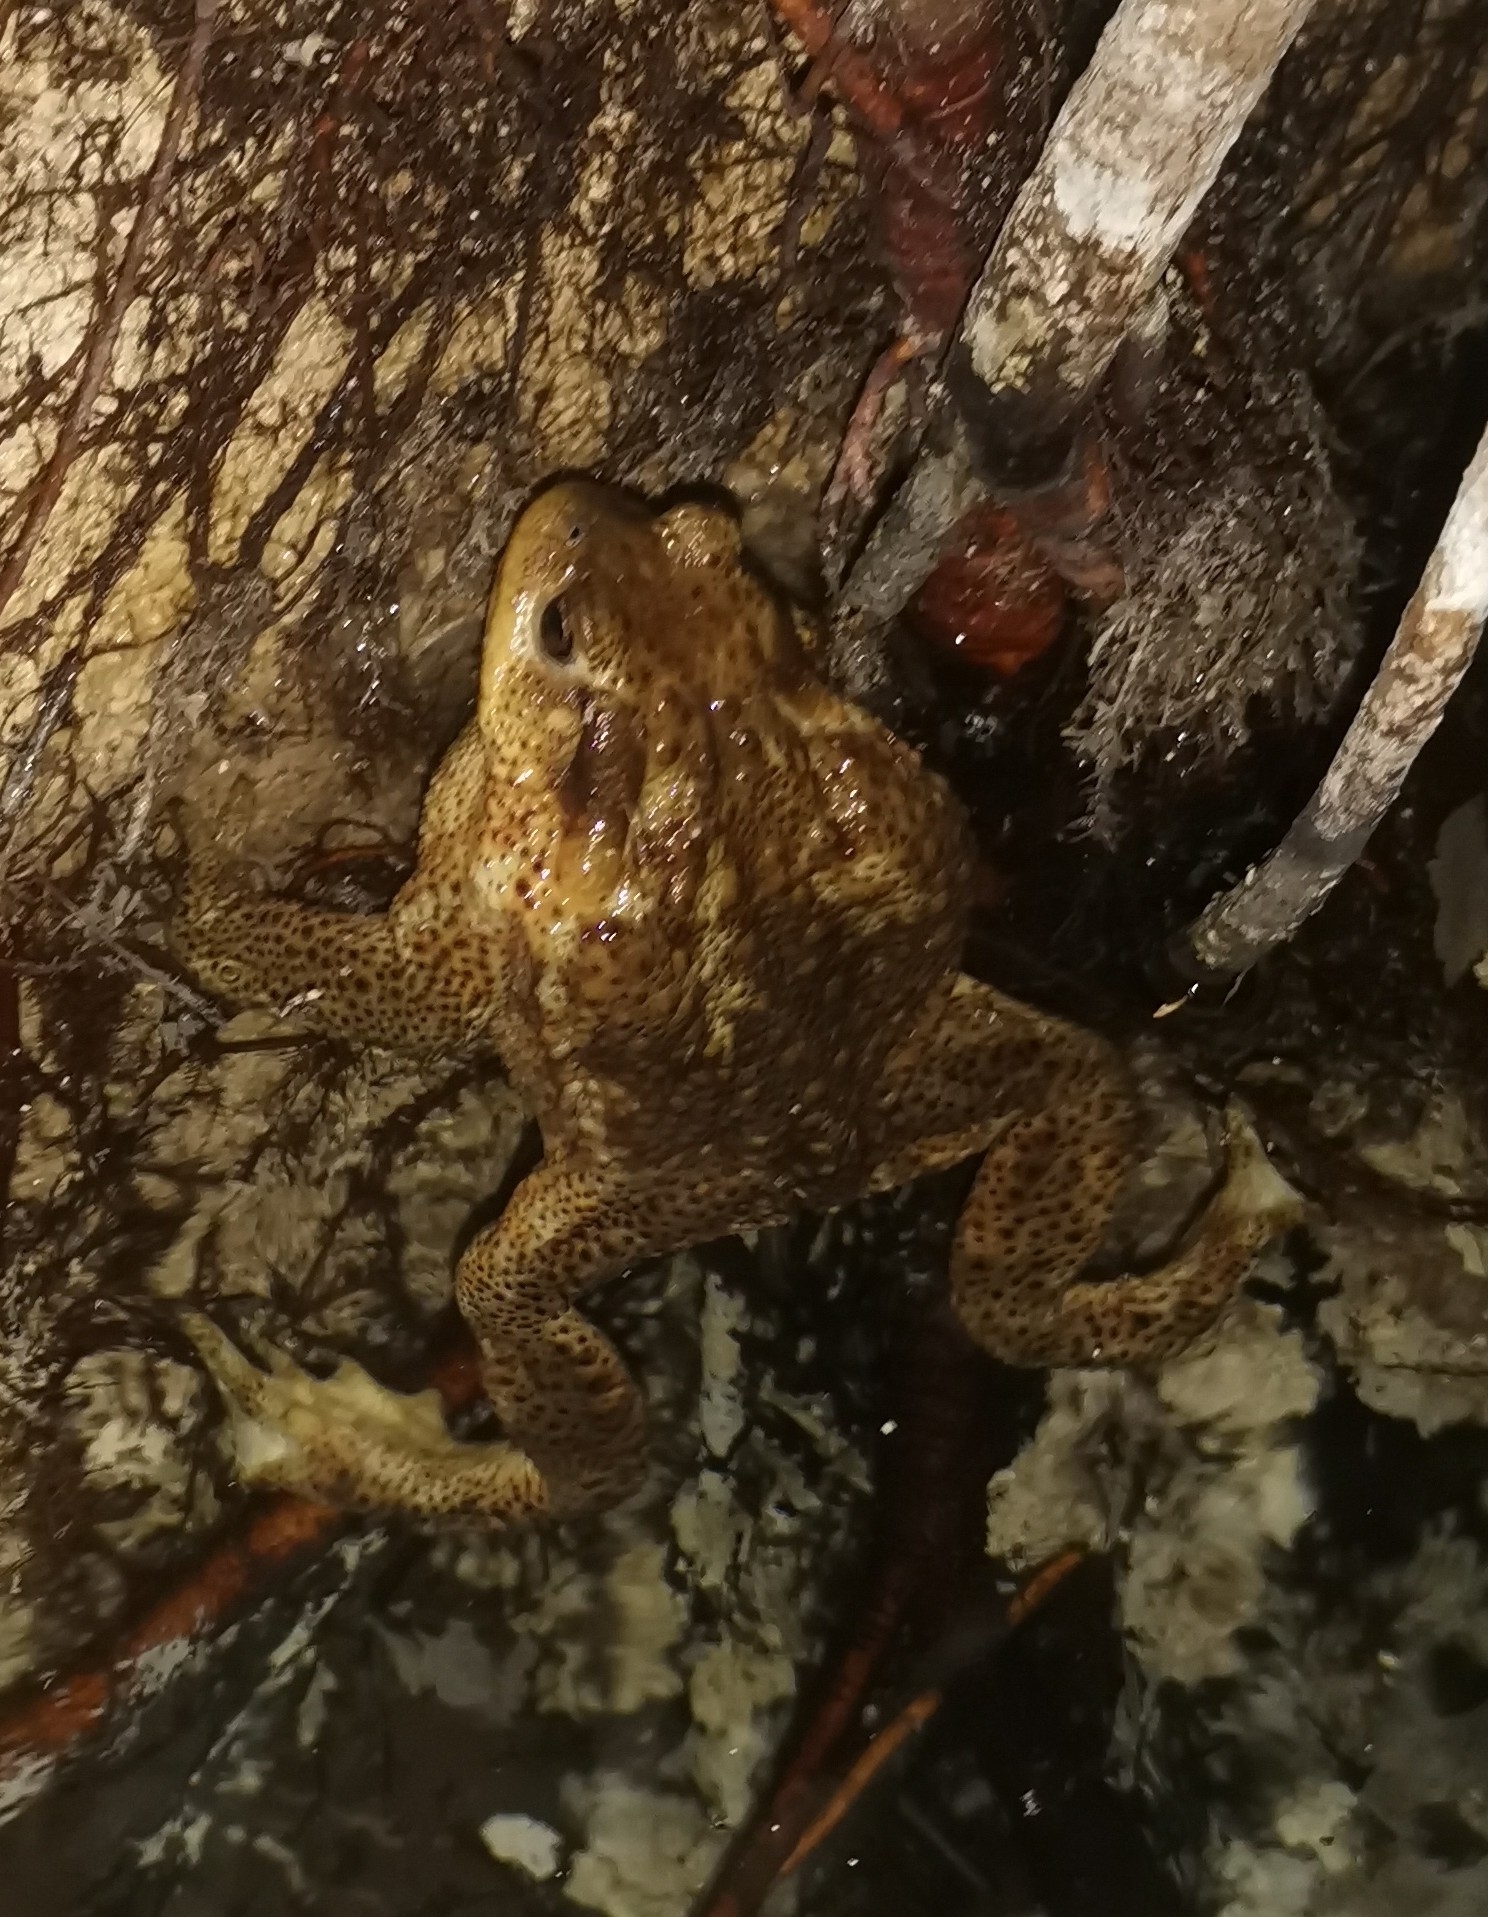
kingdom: Animalia
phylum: Chordata
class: Amphibia
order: Anura
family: Bufonidae
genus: Bufo
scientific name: Bufo bufo
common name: Common toad
